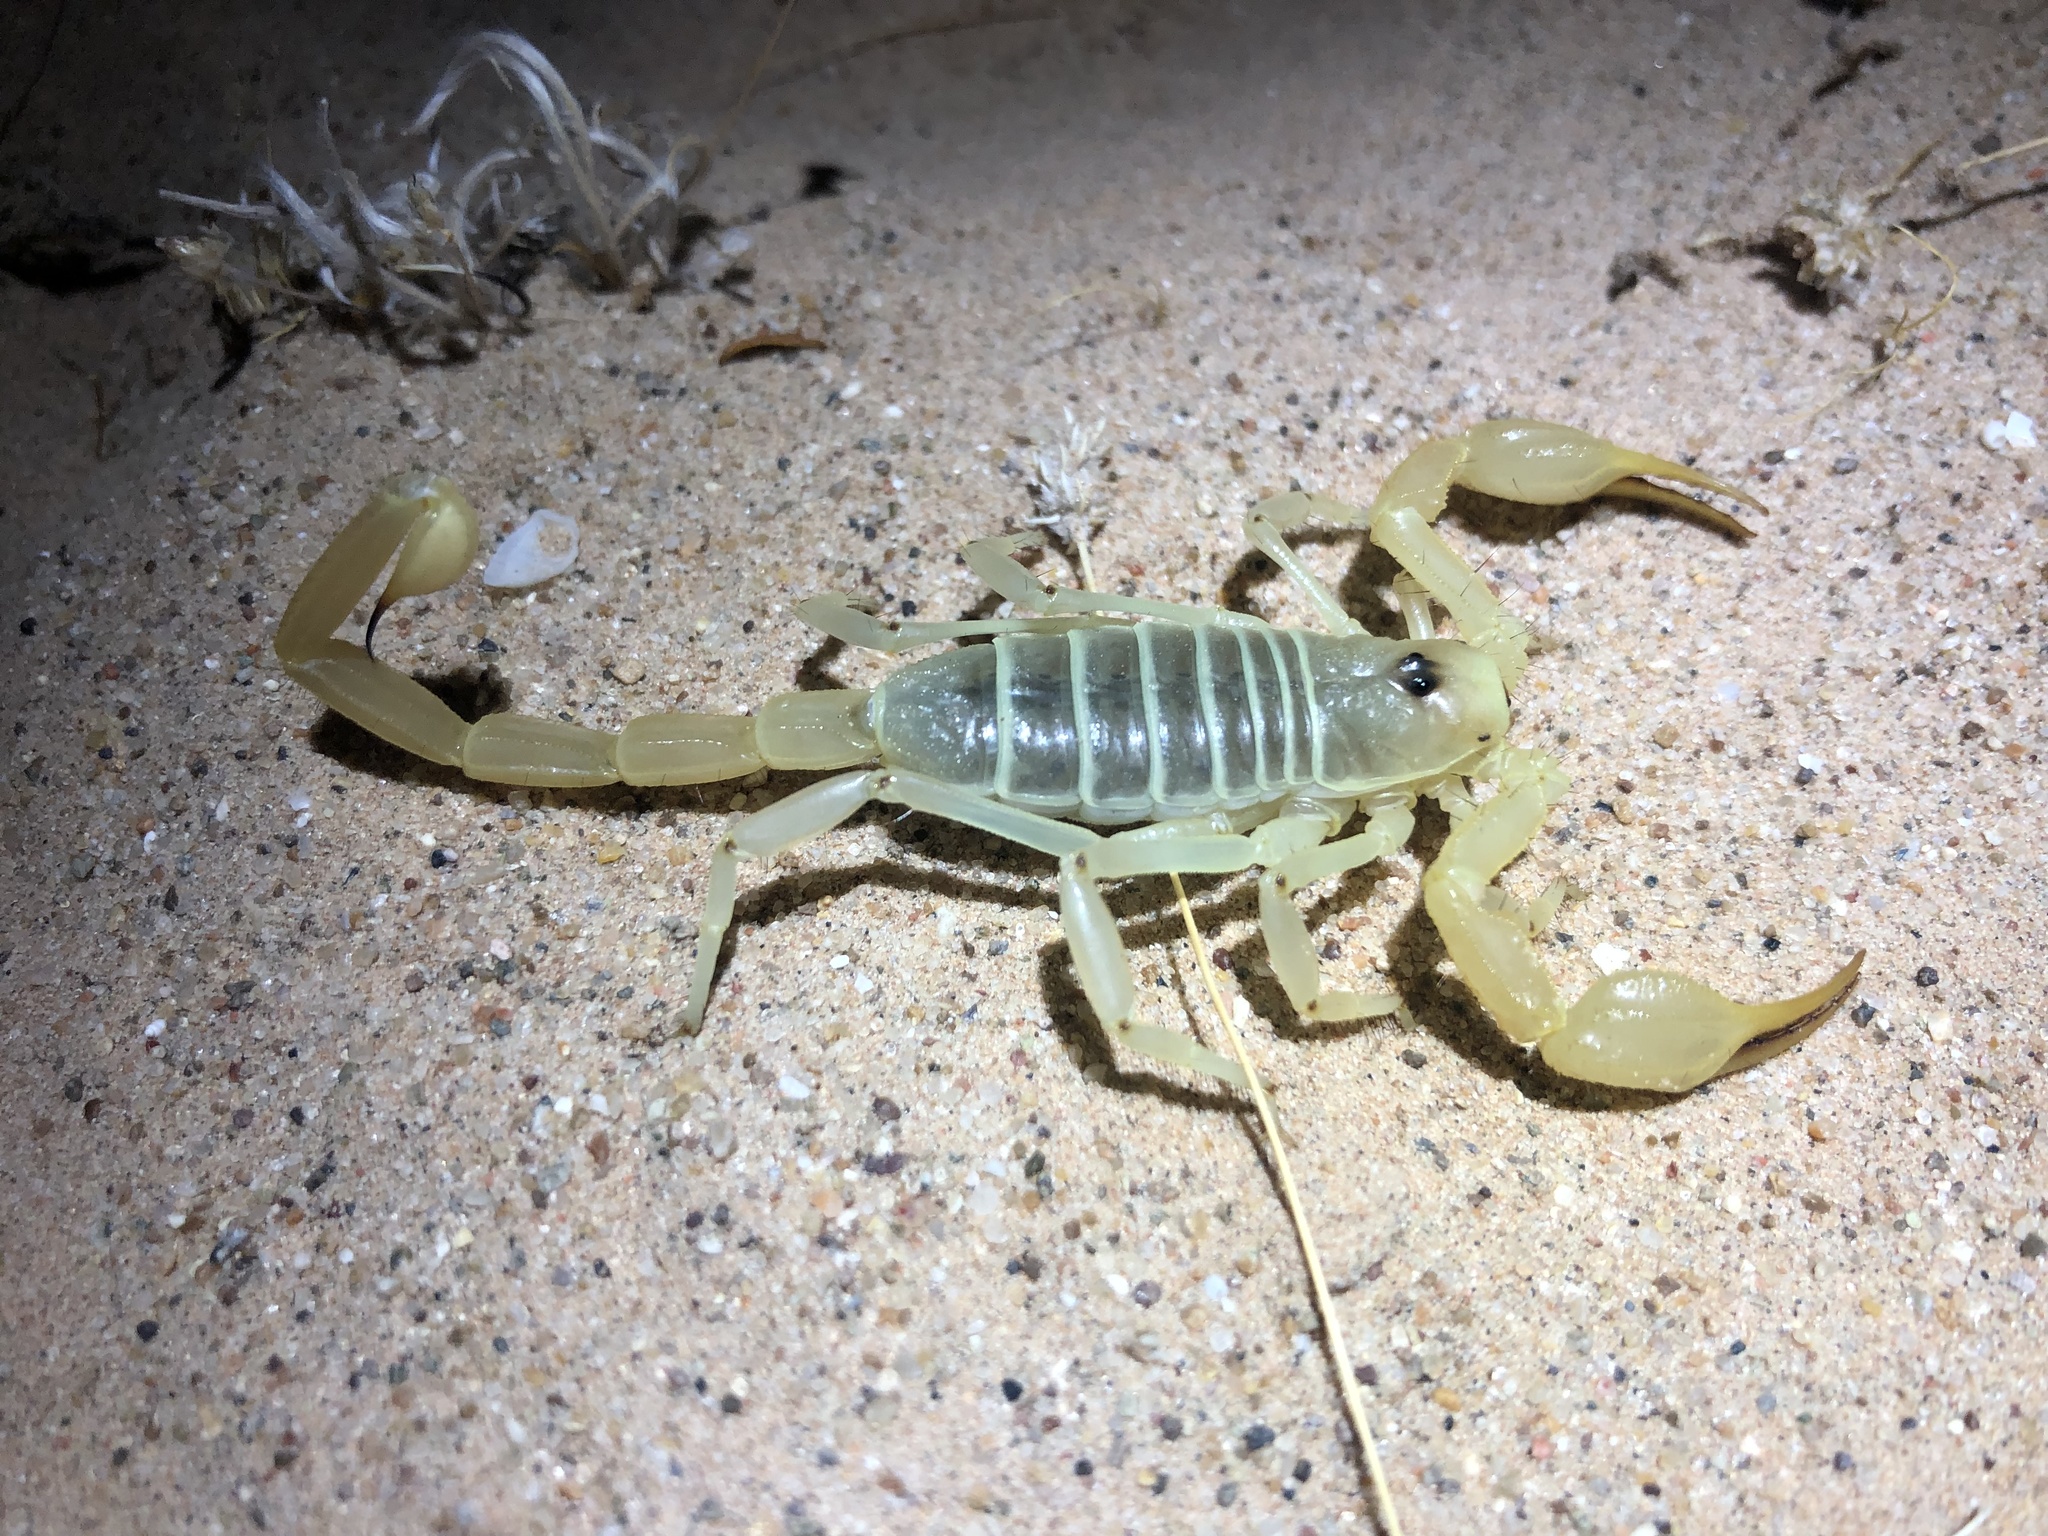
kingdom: Animalia
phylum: Arthropoda
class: Arachnida
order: Scorpiones
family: Vaejovidae
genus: Smeringurus
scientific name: Smeringurus mesaensis
